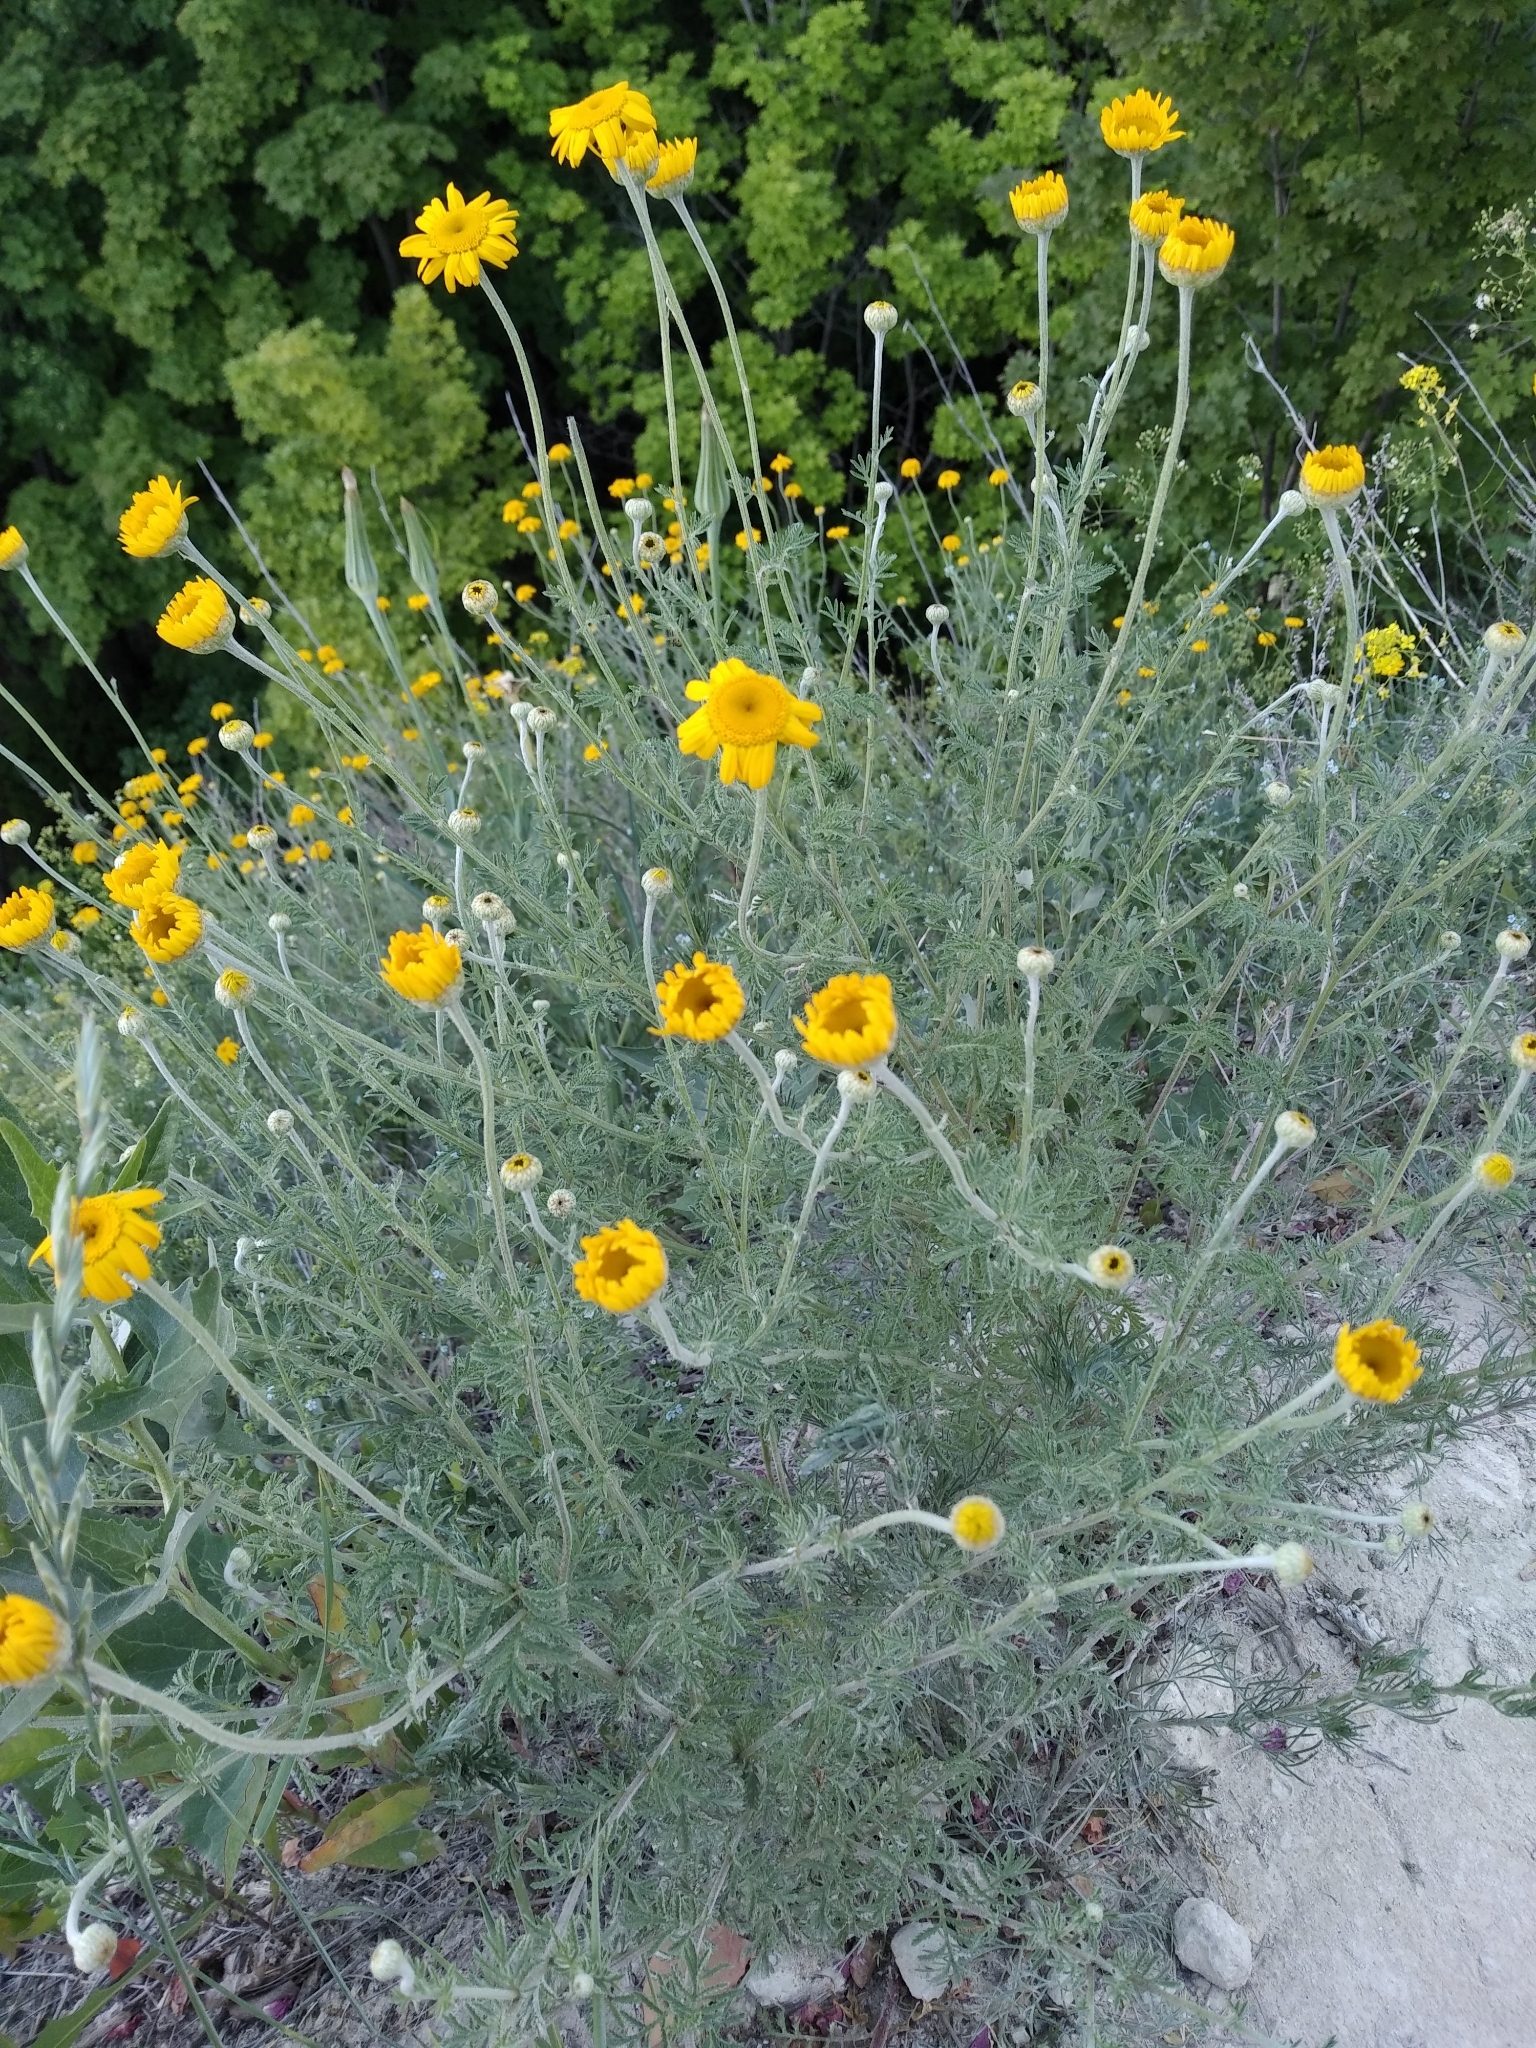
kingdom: Plantae
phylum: Tracheophyta
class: Magnoliopsida
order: Asterales
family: Asteraceae
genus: Cota
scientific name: Cota tinctoria
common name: Golden chamomile
